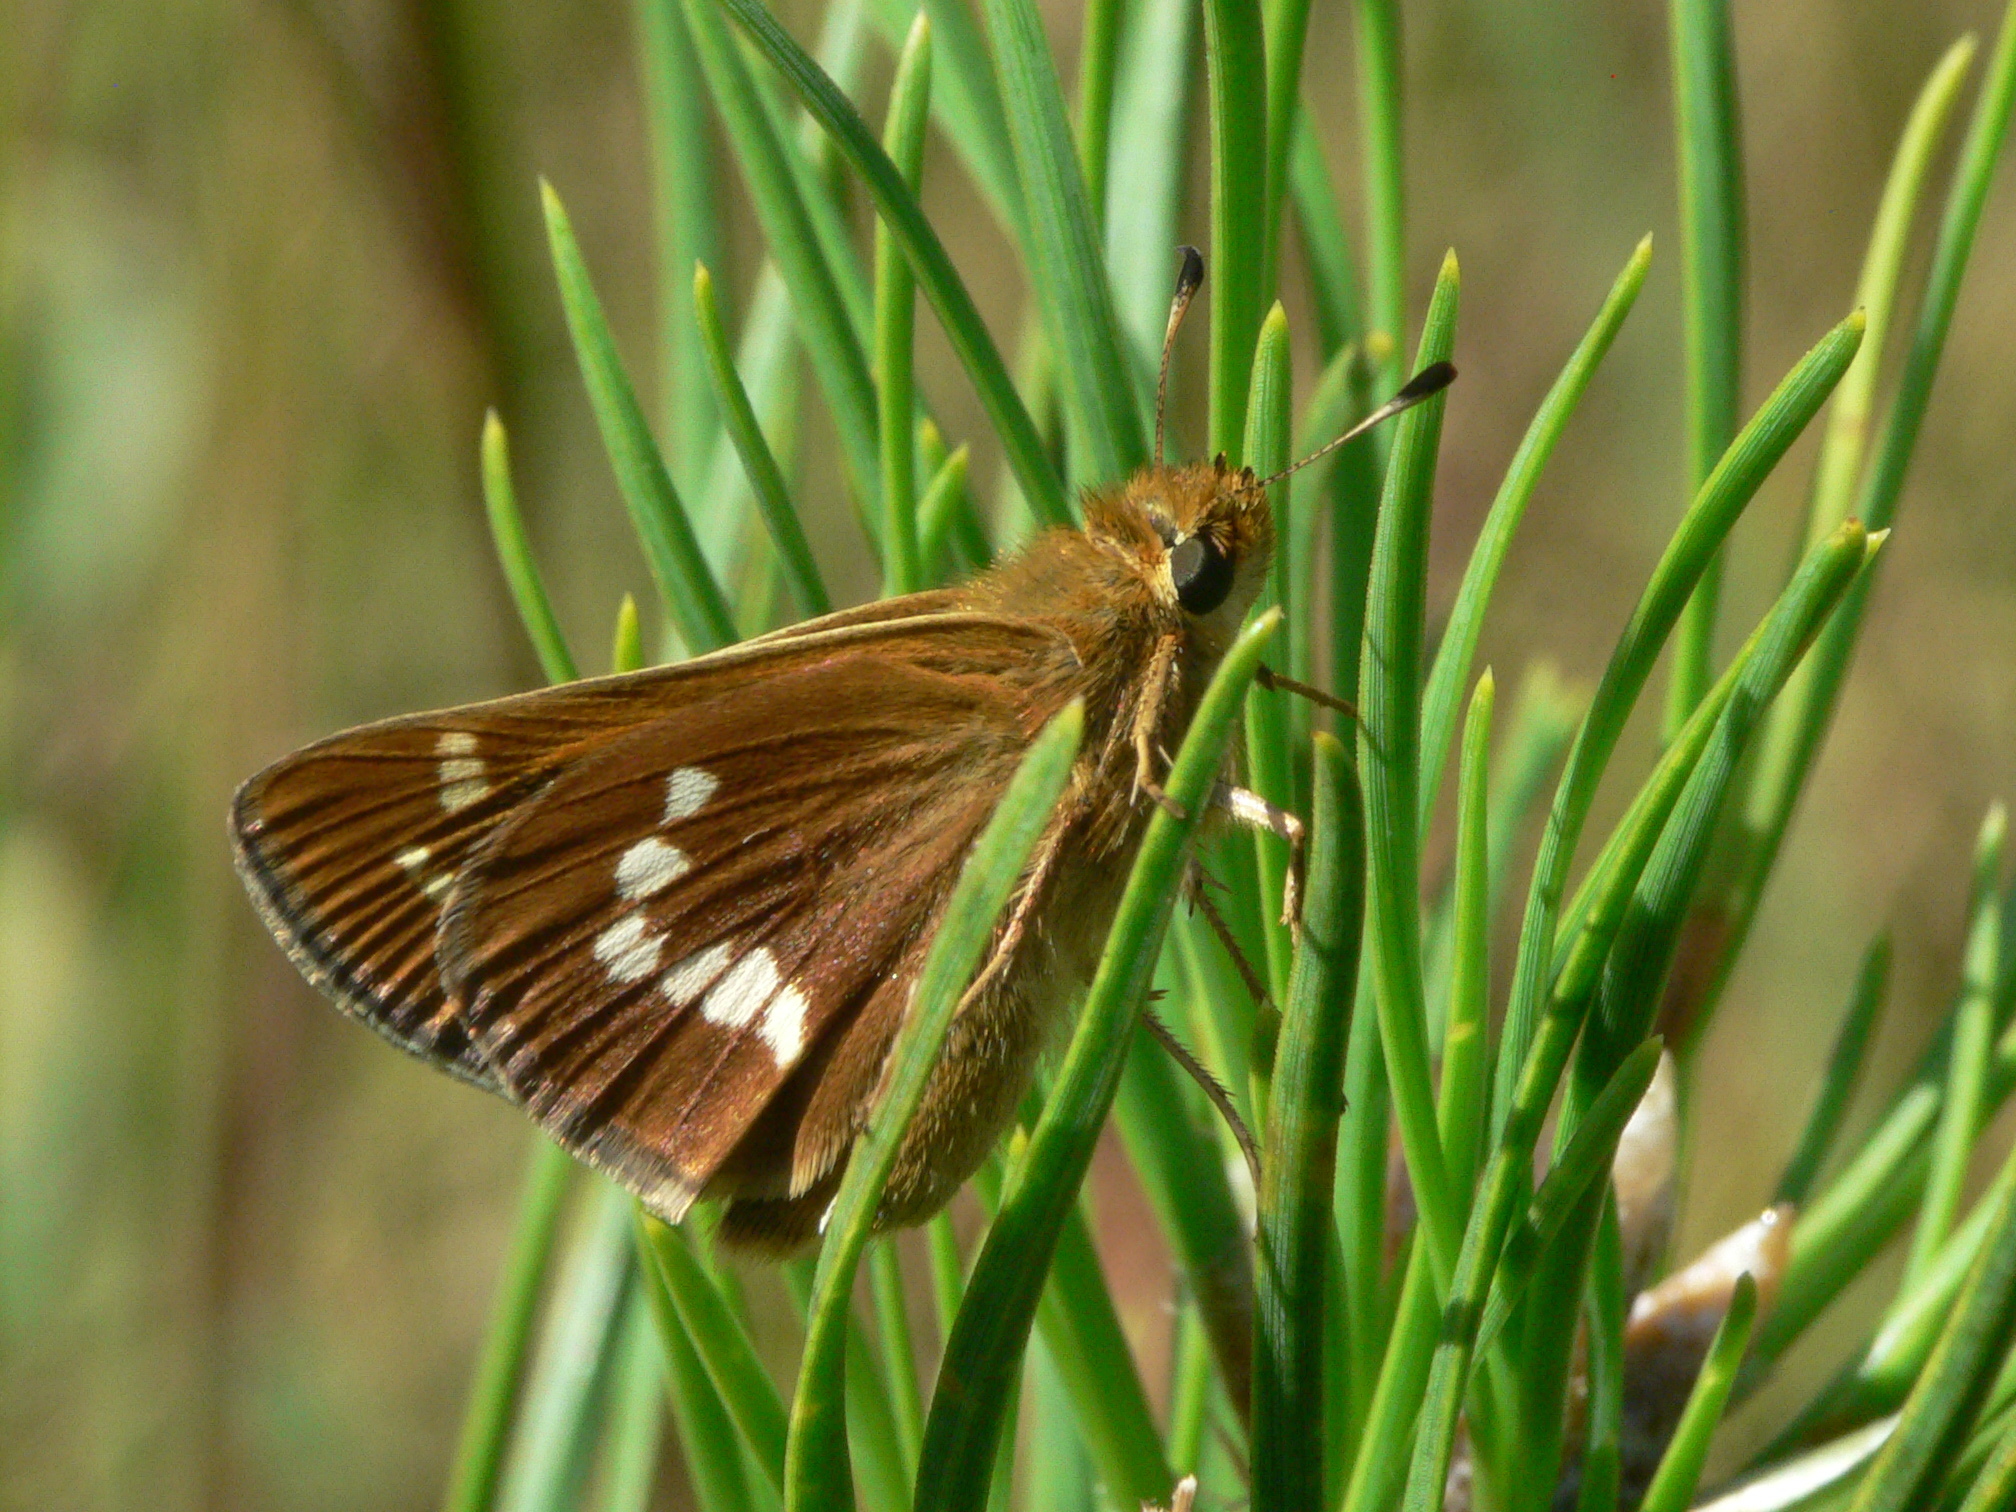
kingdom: Animalia
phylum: Arthropoda
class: Insecta
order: Lepidoptera
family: Hesperiidae
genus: Hesperia
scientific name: Hesperia leonardus
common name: Leonard's skipper
